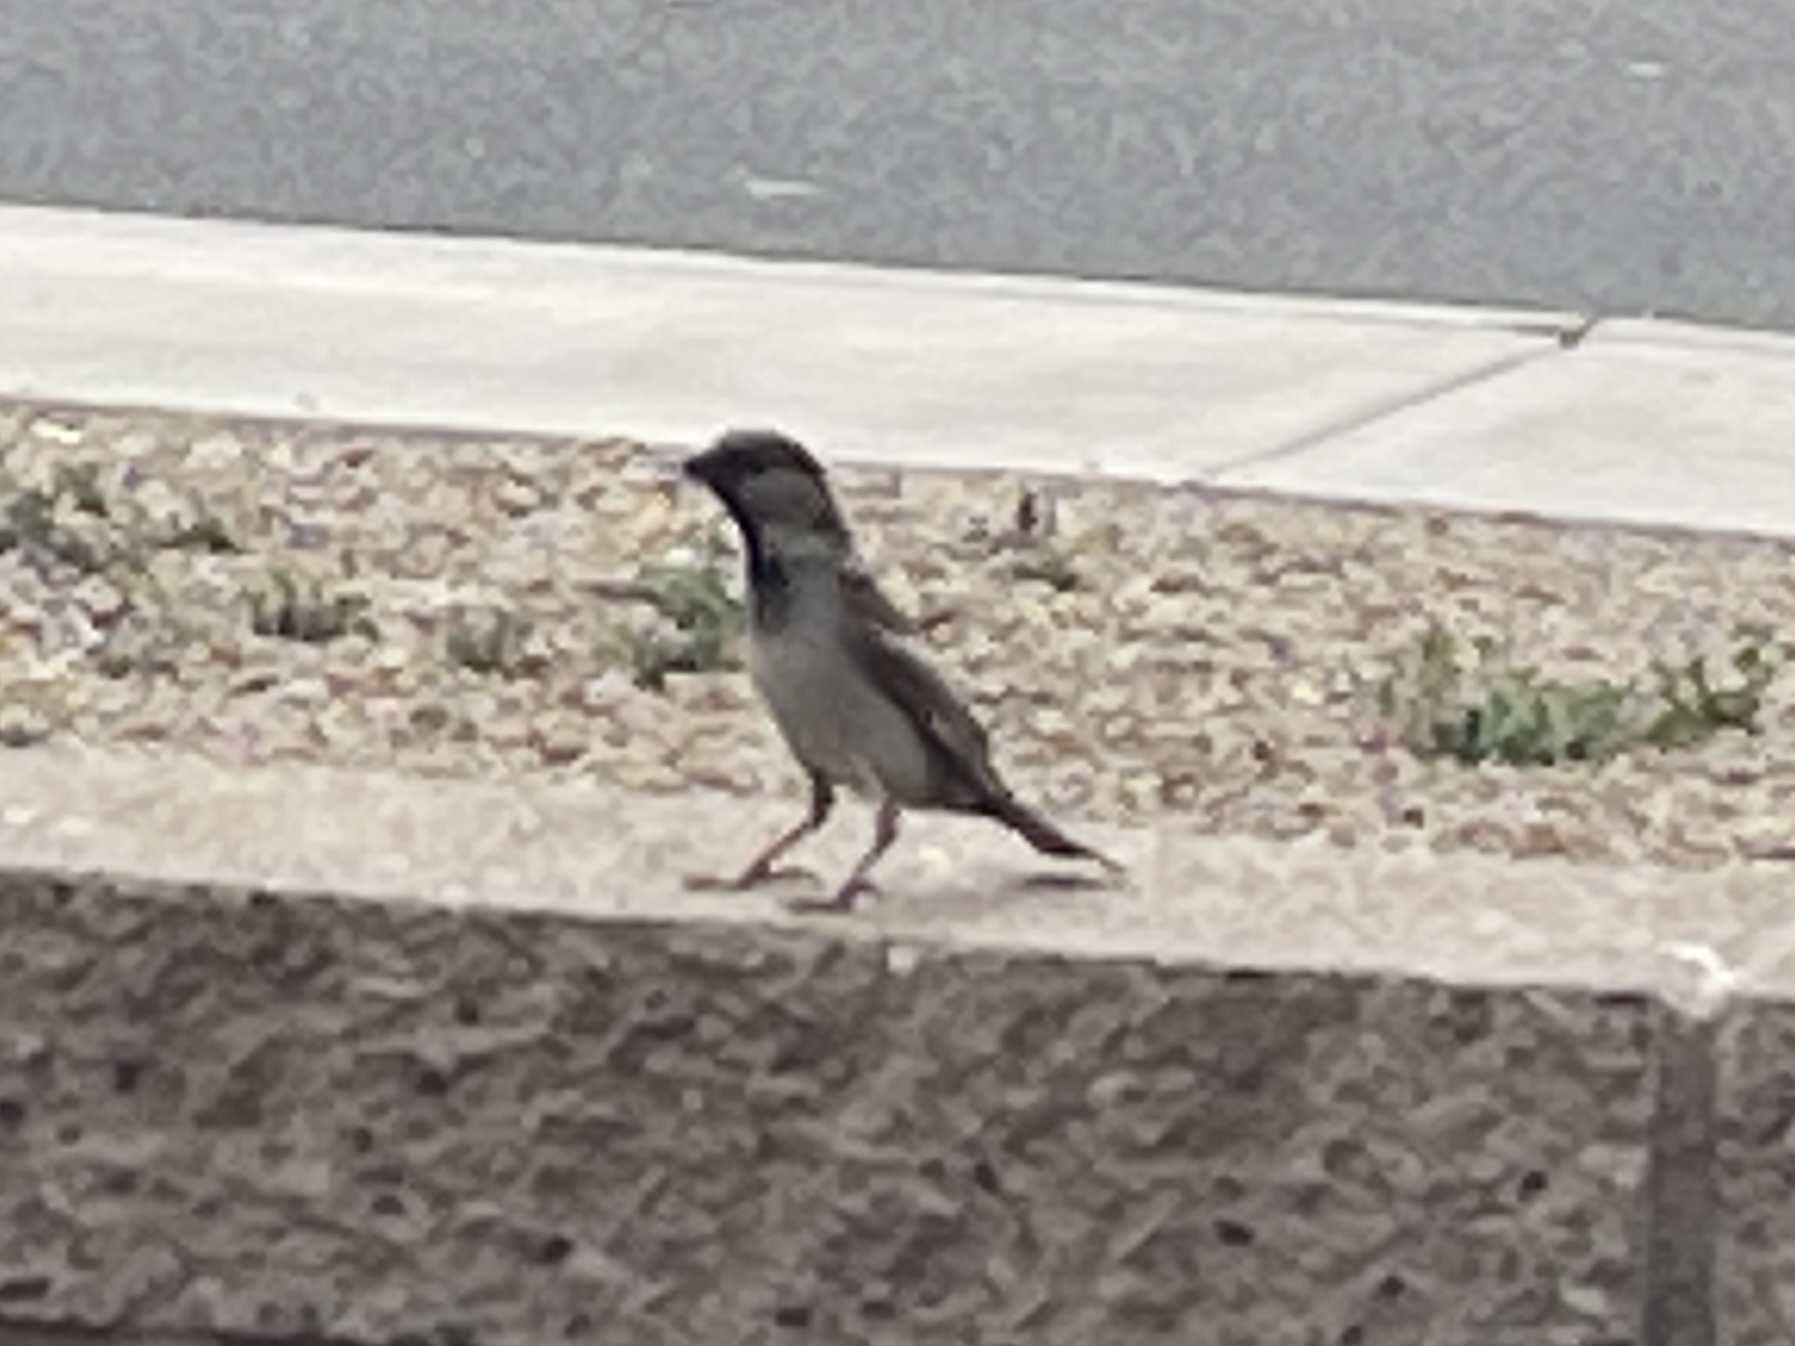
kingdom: Animalia
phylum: Chordata
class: Aves
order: Passeriformes
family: Passeridae
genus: Passer
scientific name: Passer domesticus
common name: House sparrow
